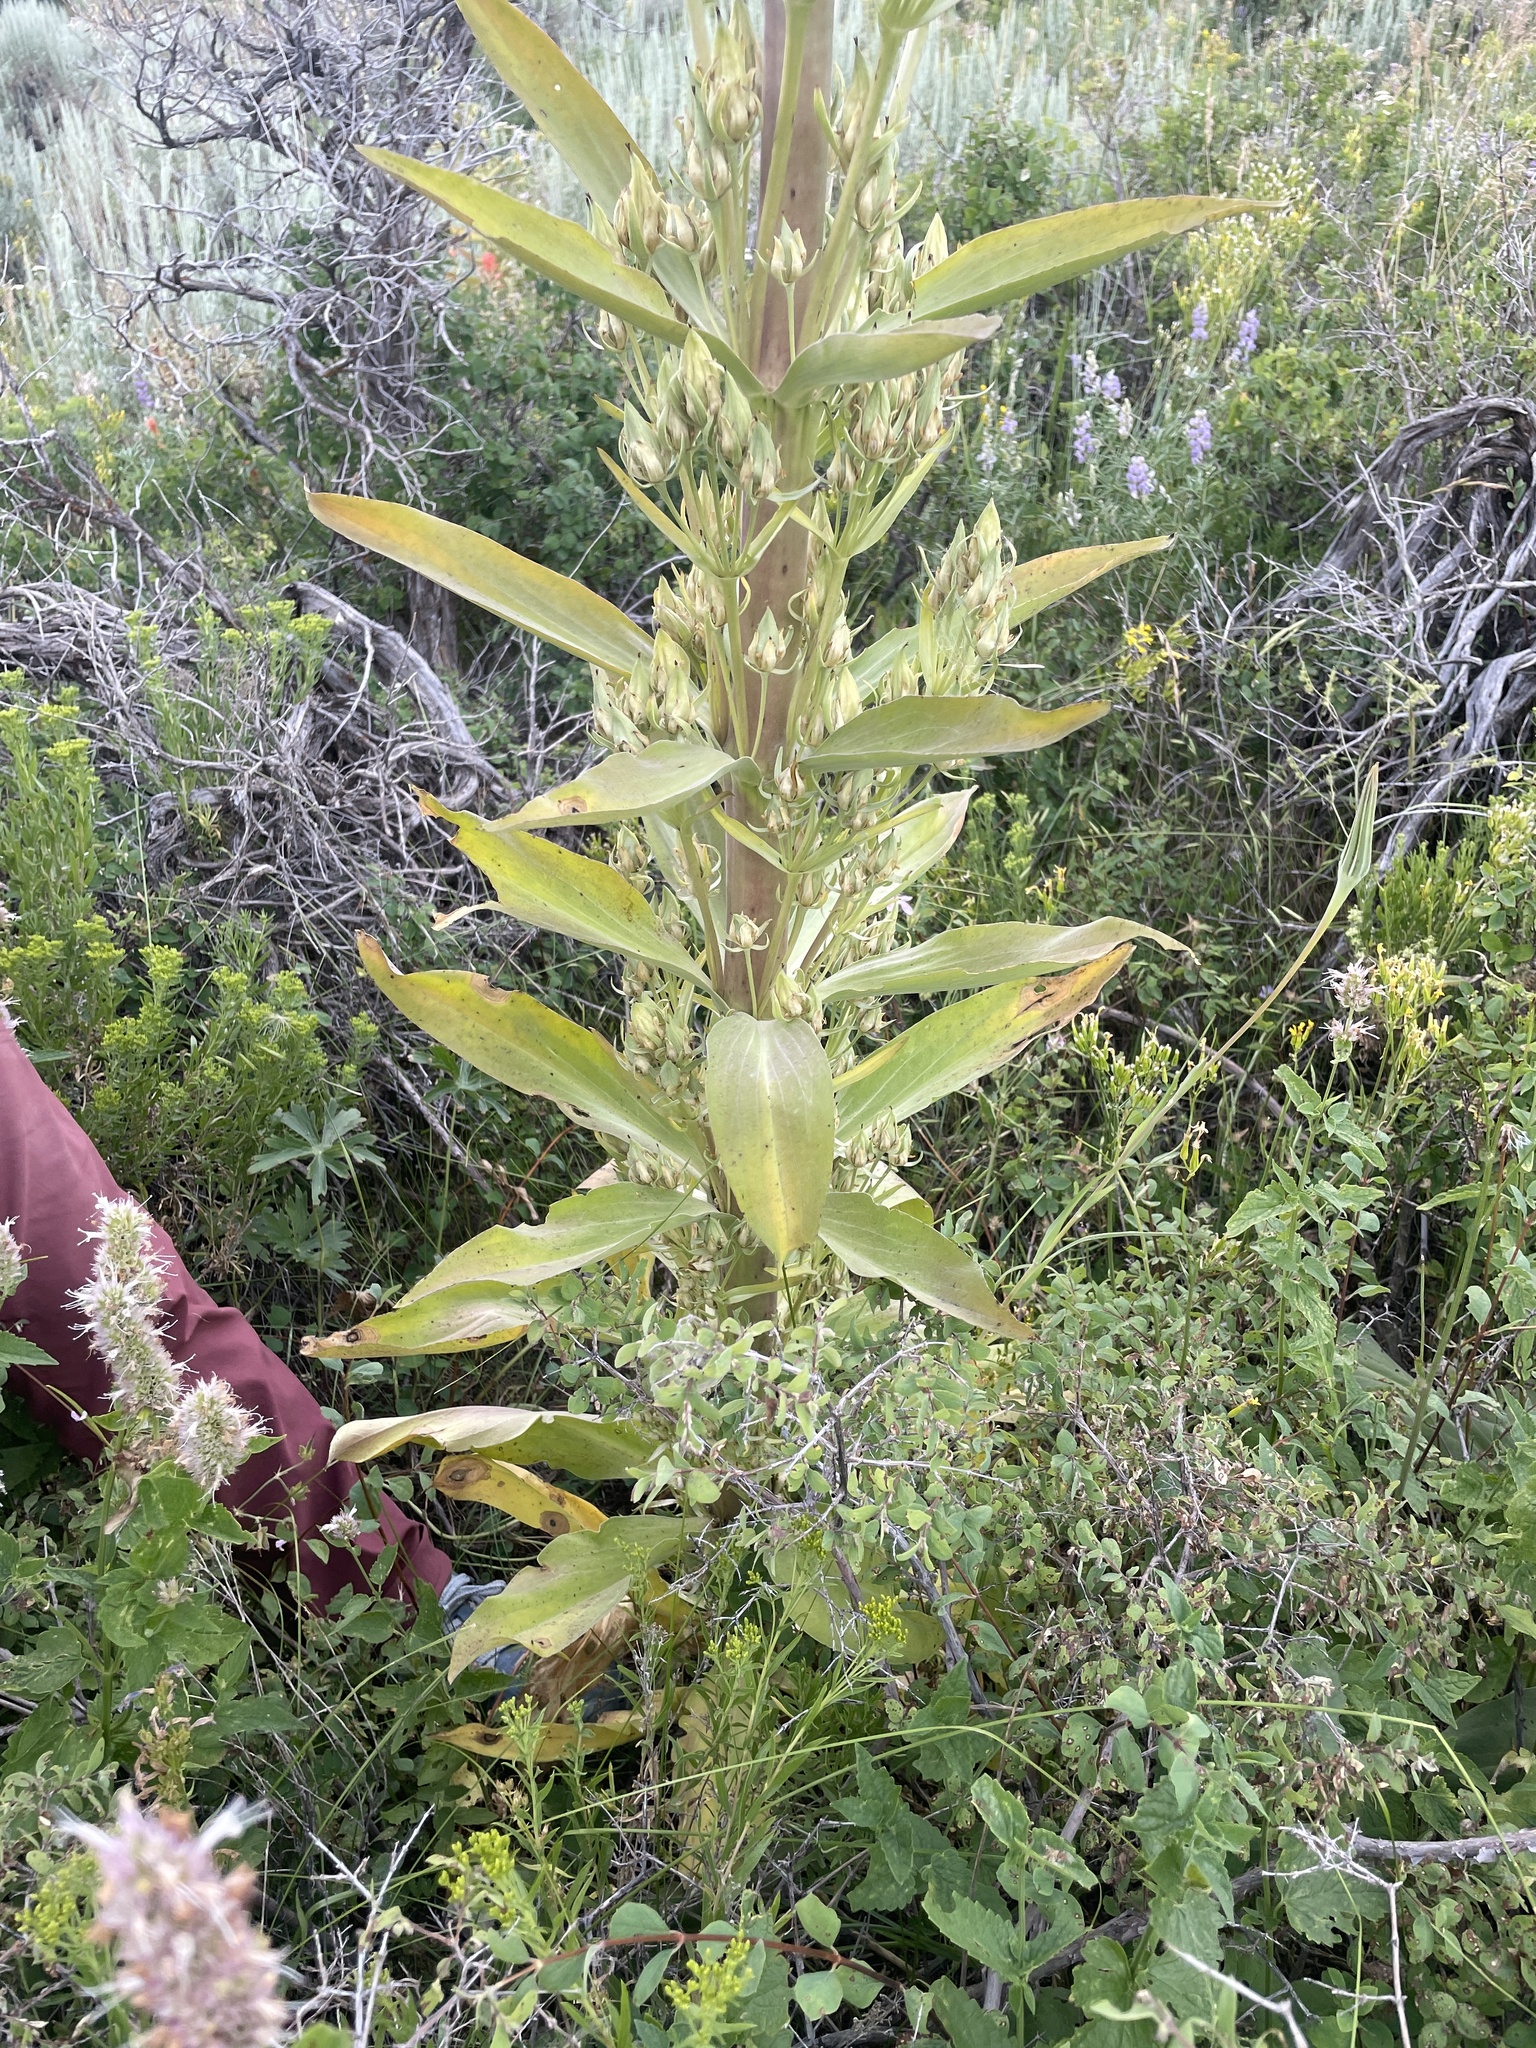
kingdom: Plantae
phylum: Tracheophyta
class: Magnoliopsida
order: Gentianales
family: Gentianaceae
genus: Frasera
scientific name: Frasera speciosa
